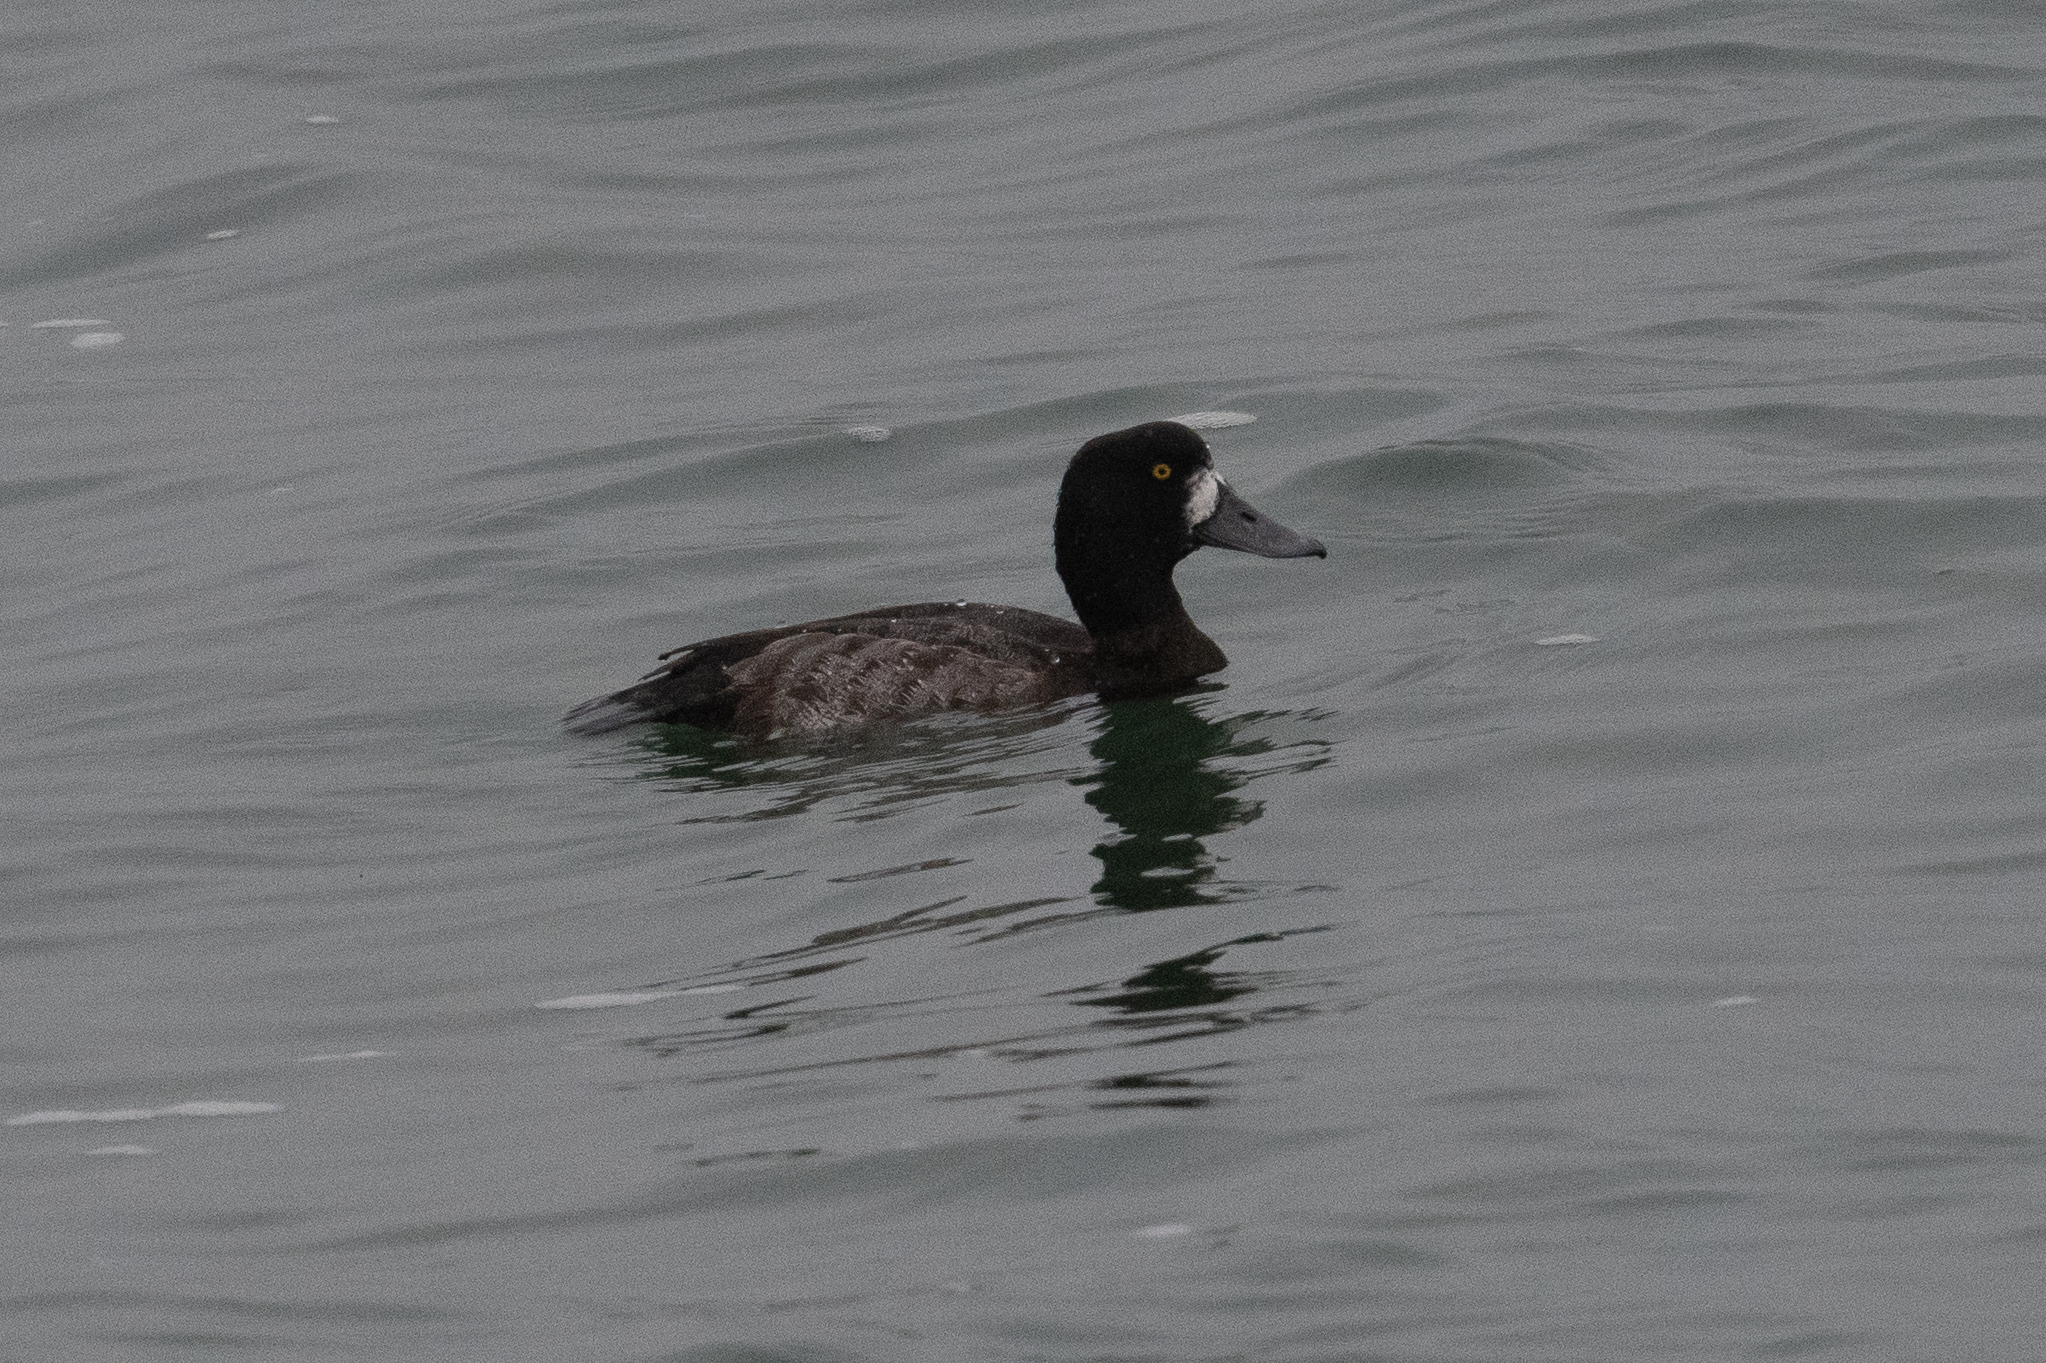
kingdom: Animalia
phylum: Chordata
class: Aves
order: Anseriformes
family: Anatidae
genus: Aythya
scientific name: Aythya marila
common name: Greater scaup
